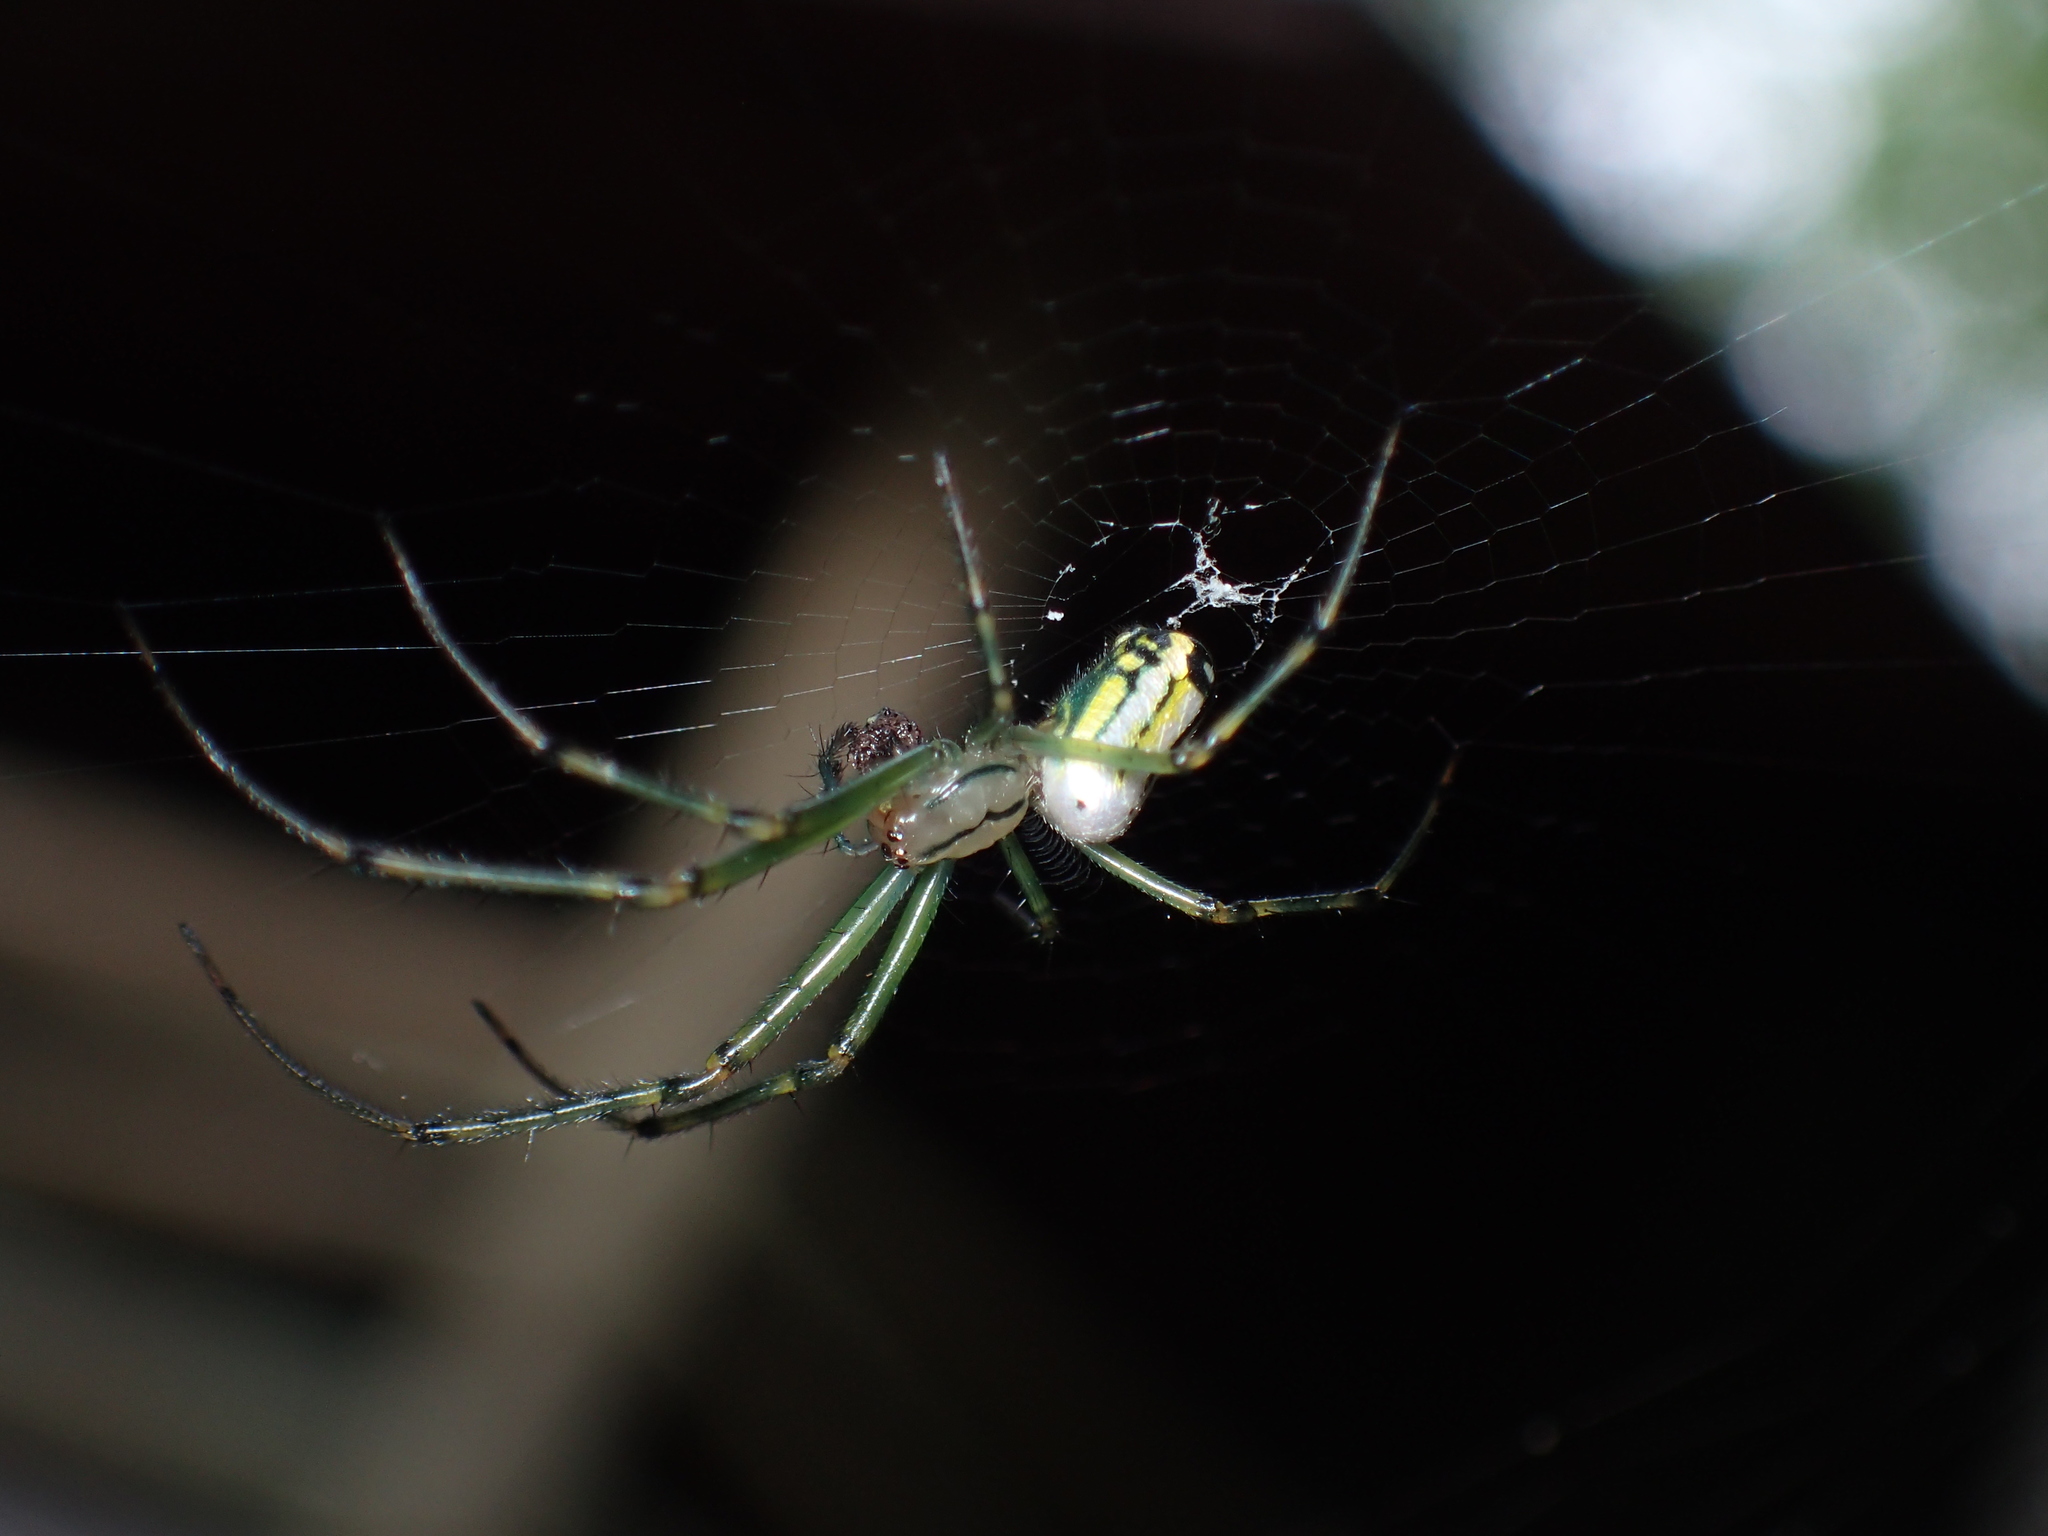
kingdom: Animalia
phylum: Arthropoda
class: Arachnida
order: Araneae
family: Tetragnathidae
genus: Leucauge
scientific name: Leucauge venusta
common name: Longjawed orb weavers
